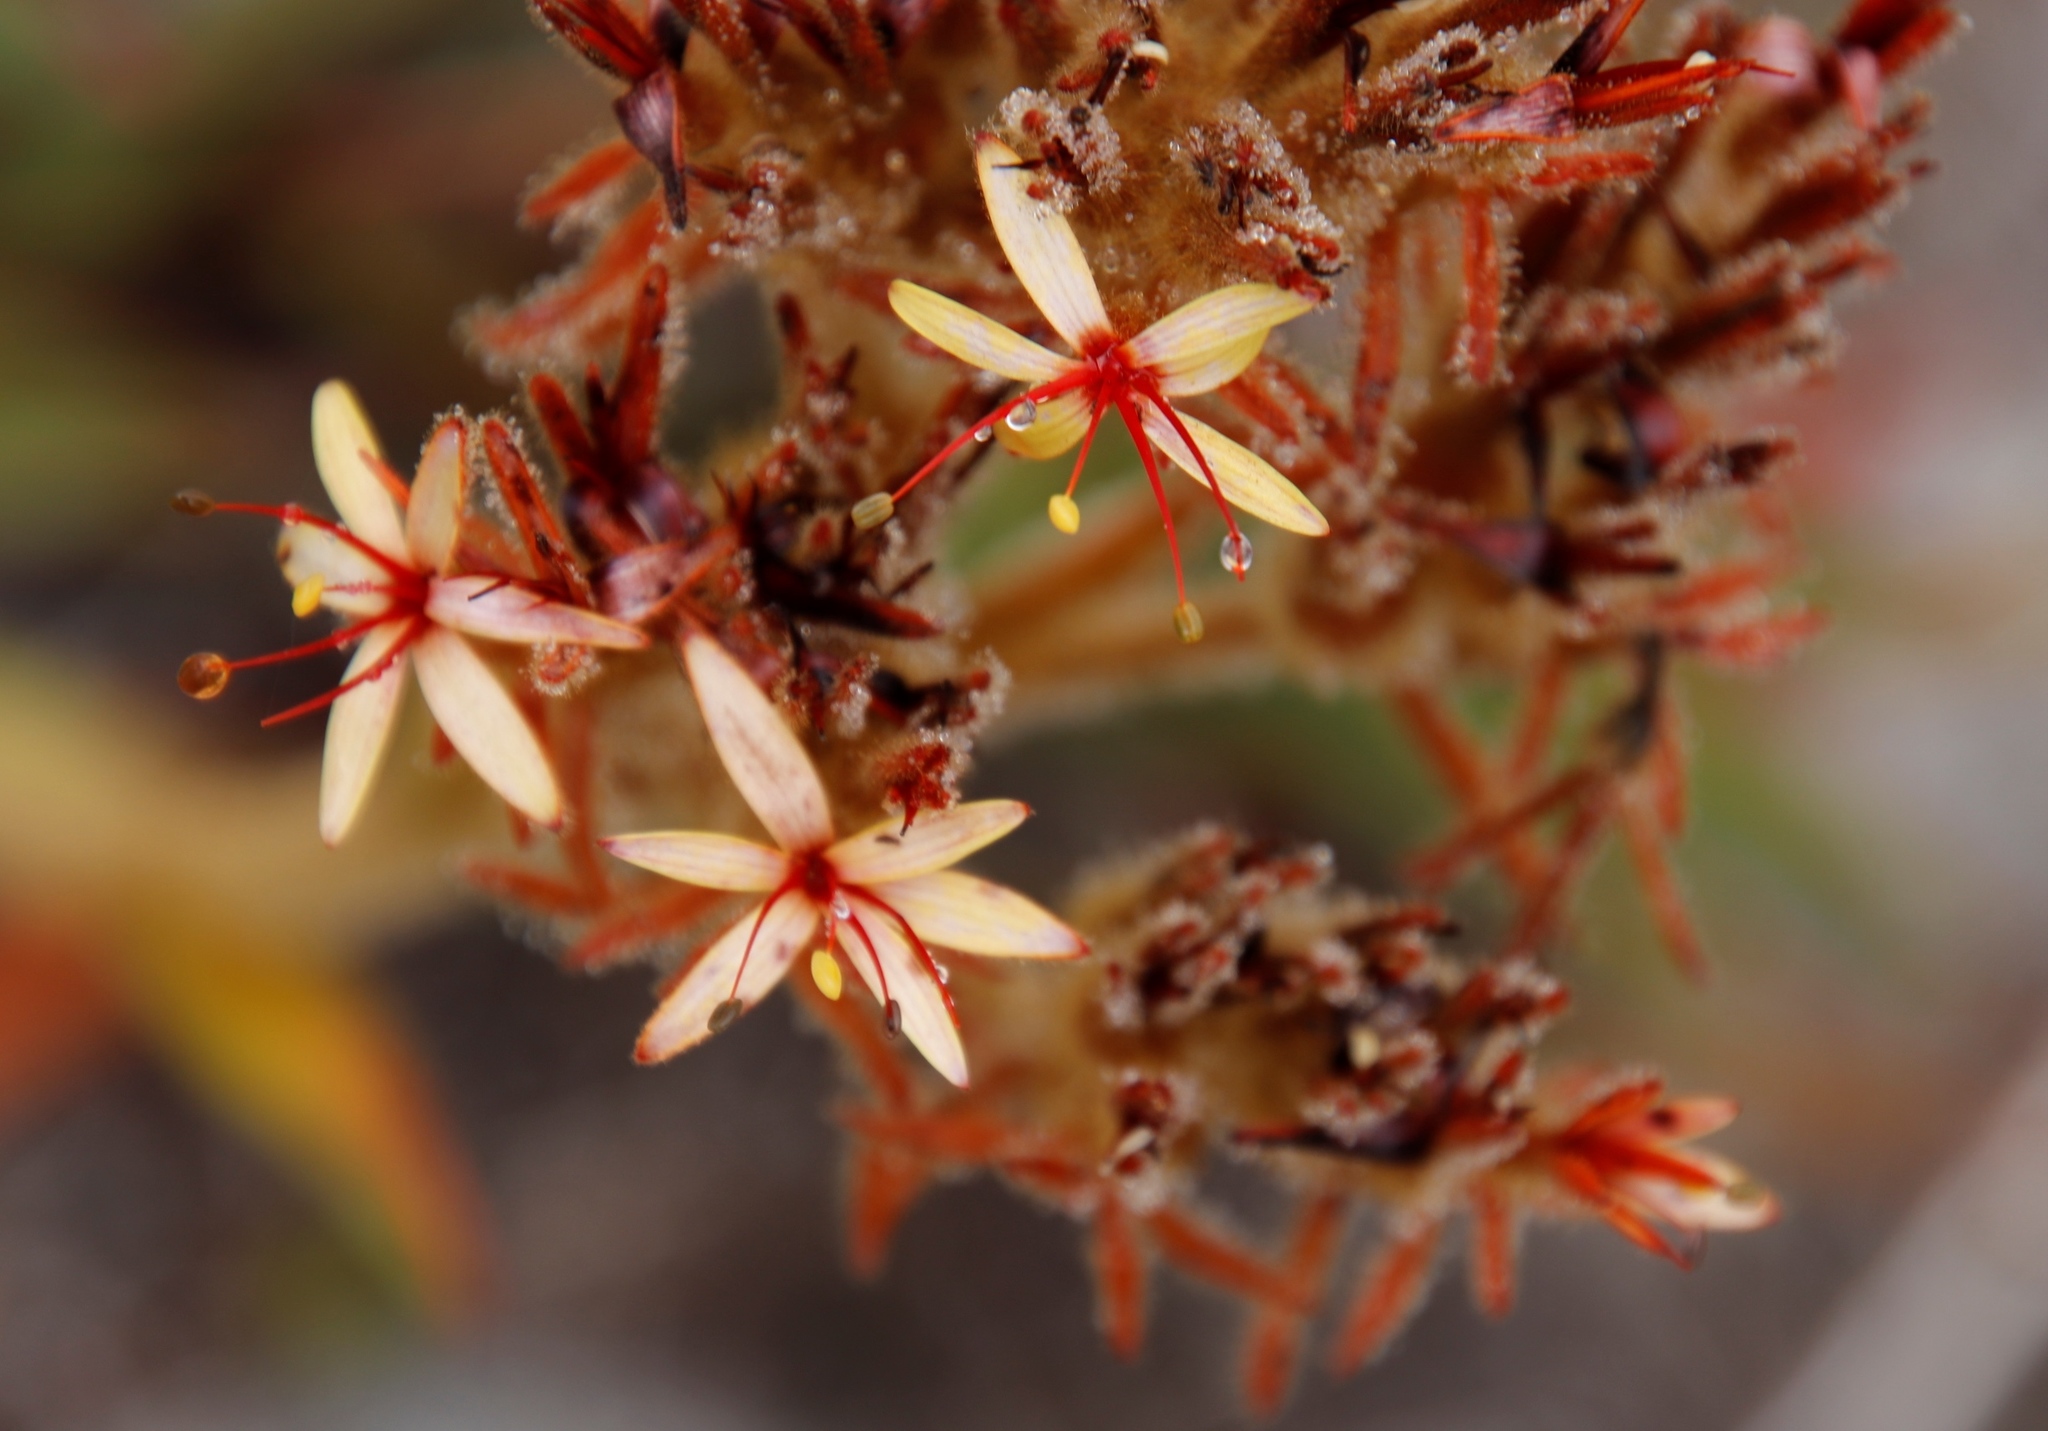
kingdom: Plantae
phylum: Tracheophyta
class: Liliopsida
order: Commelinales
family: Haemodoraceae
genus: Dilatris
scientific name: Dilatris viscosa
